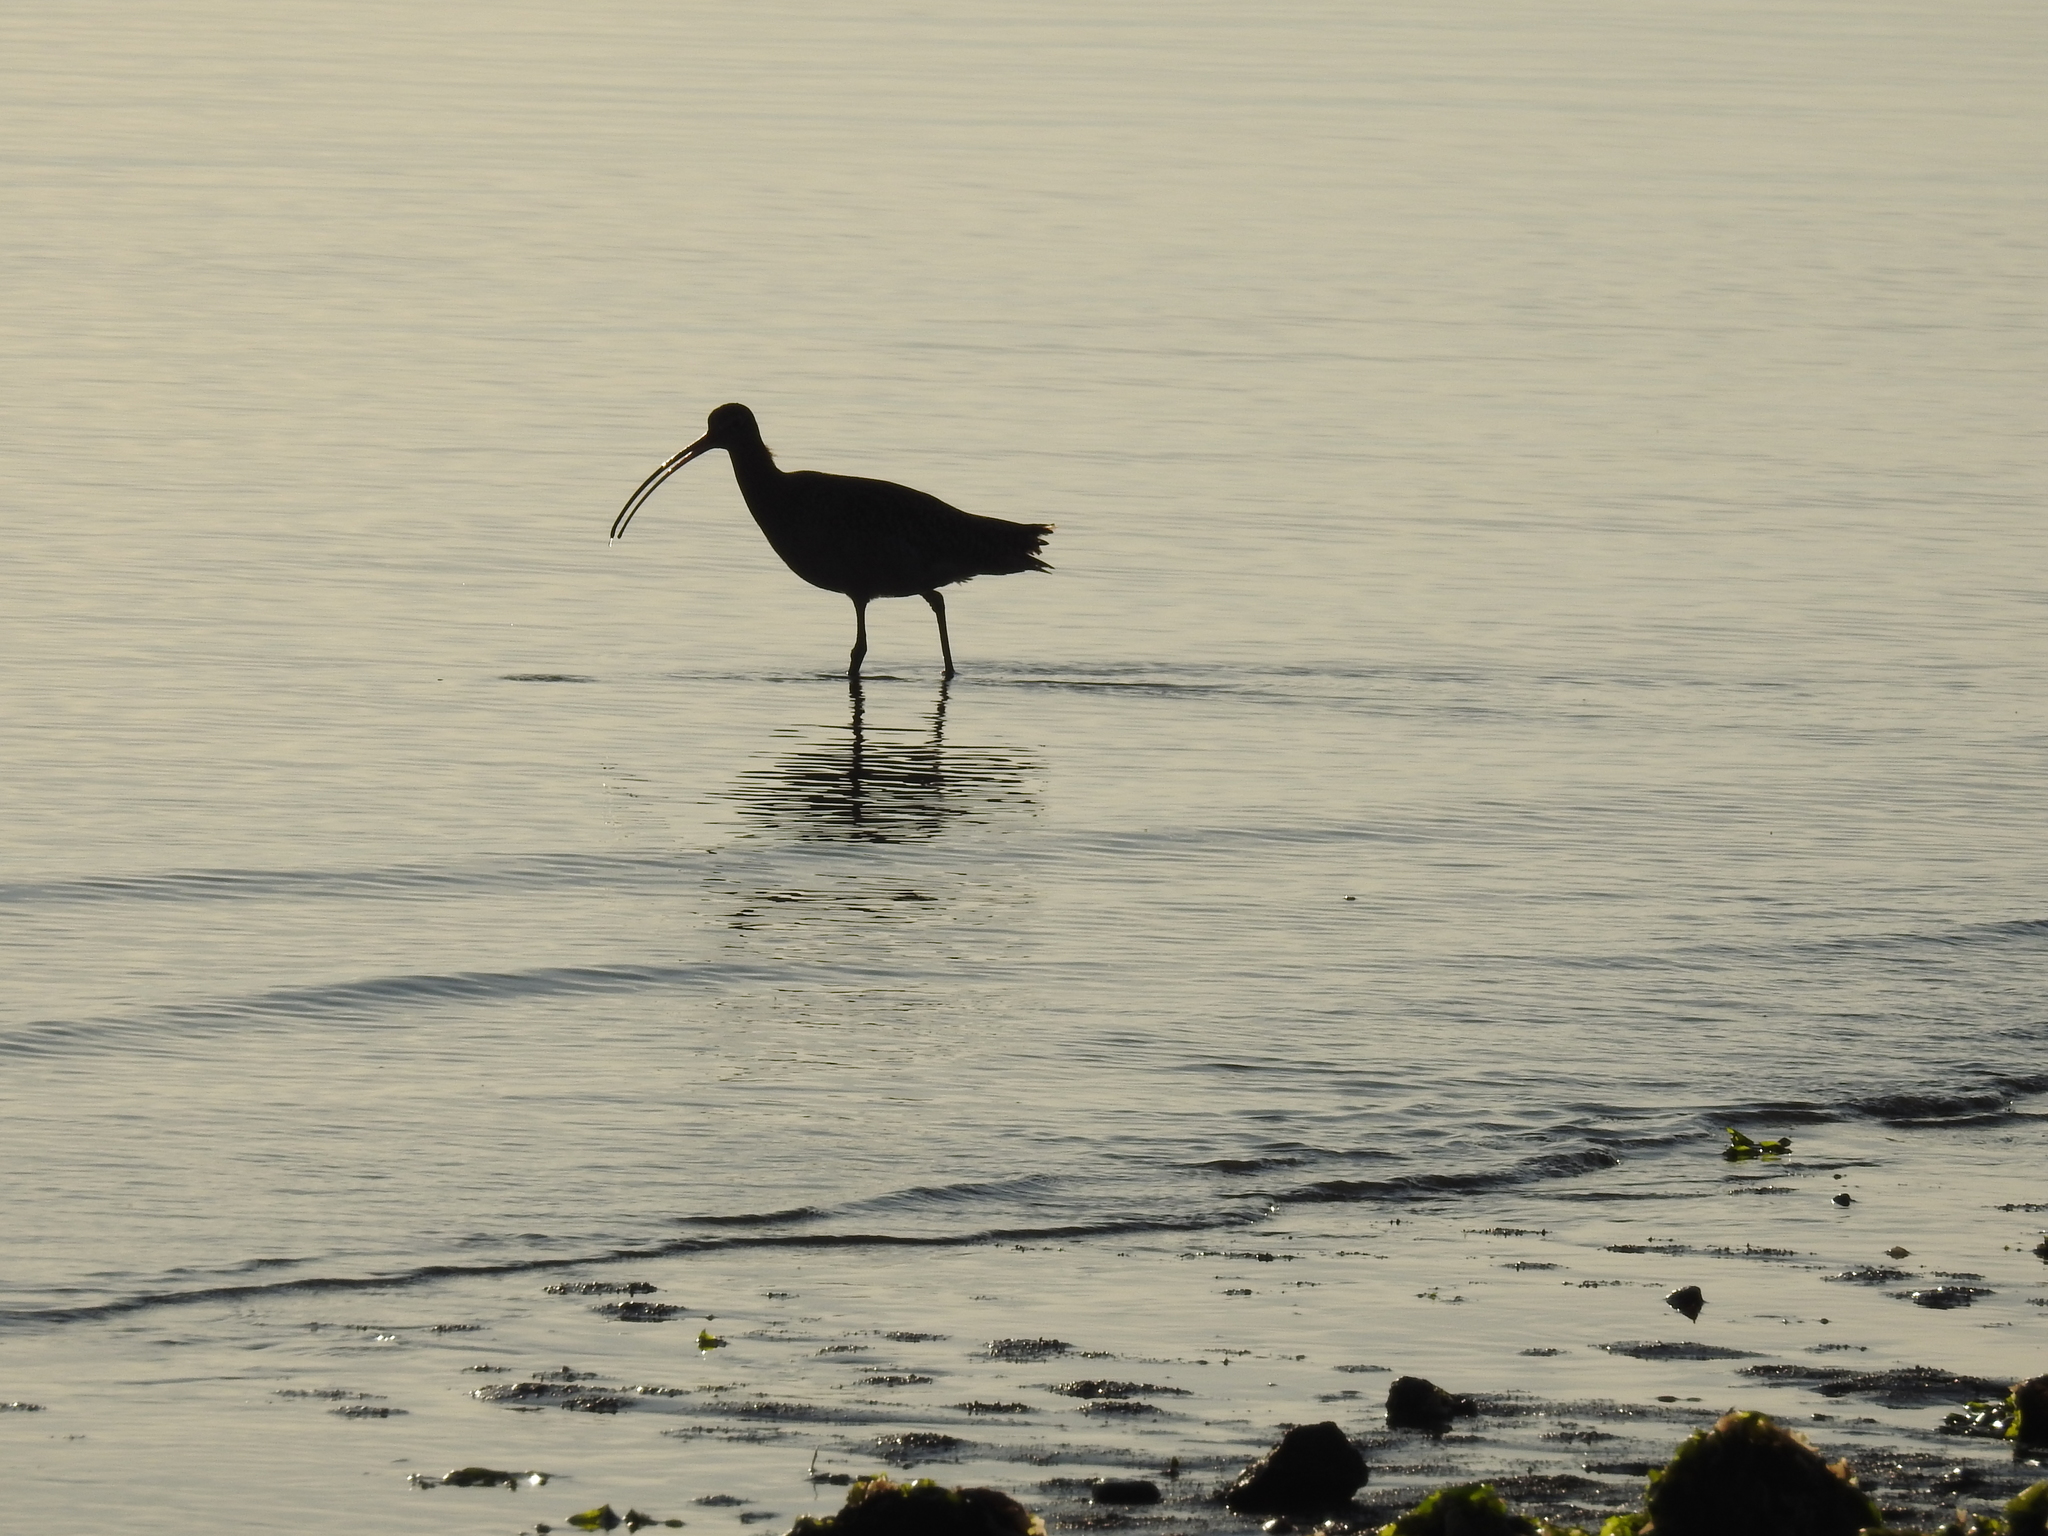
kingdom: Animalia
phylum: Chordata
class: Aves
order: Charadriiformes
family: Scolopacidae
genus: Numenius
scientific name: Numenius americanus
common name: Long-billed curlew
